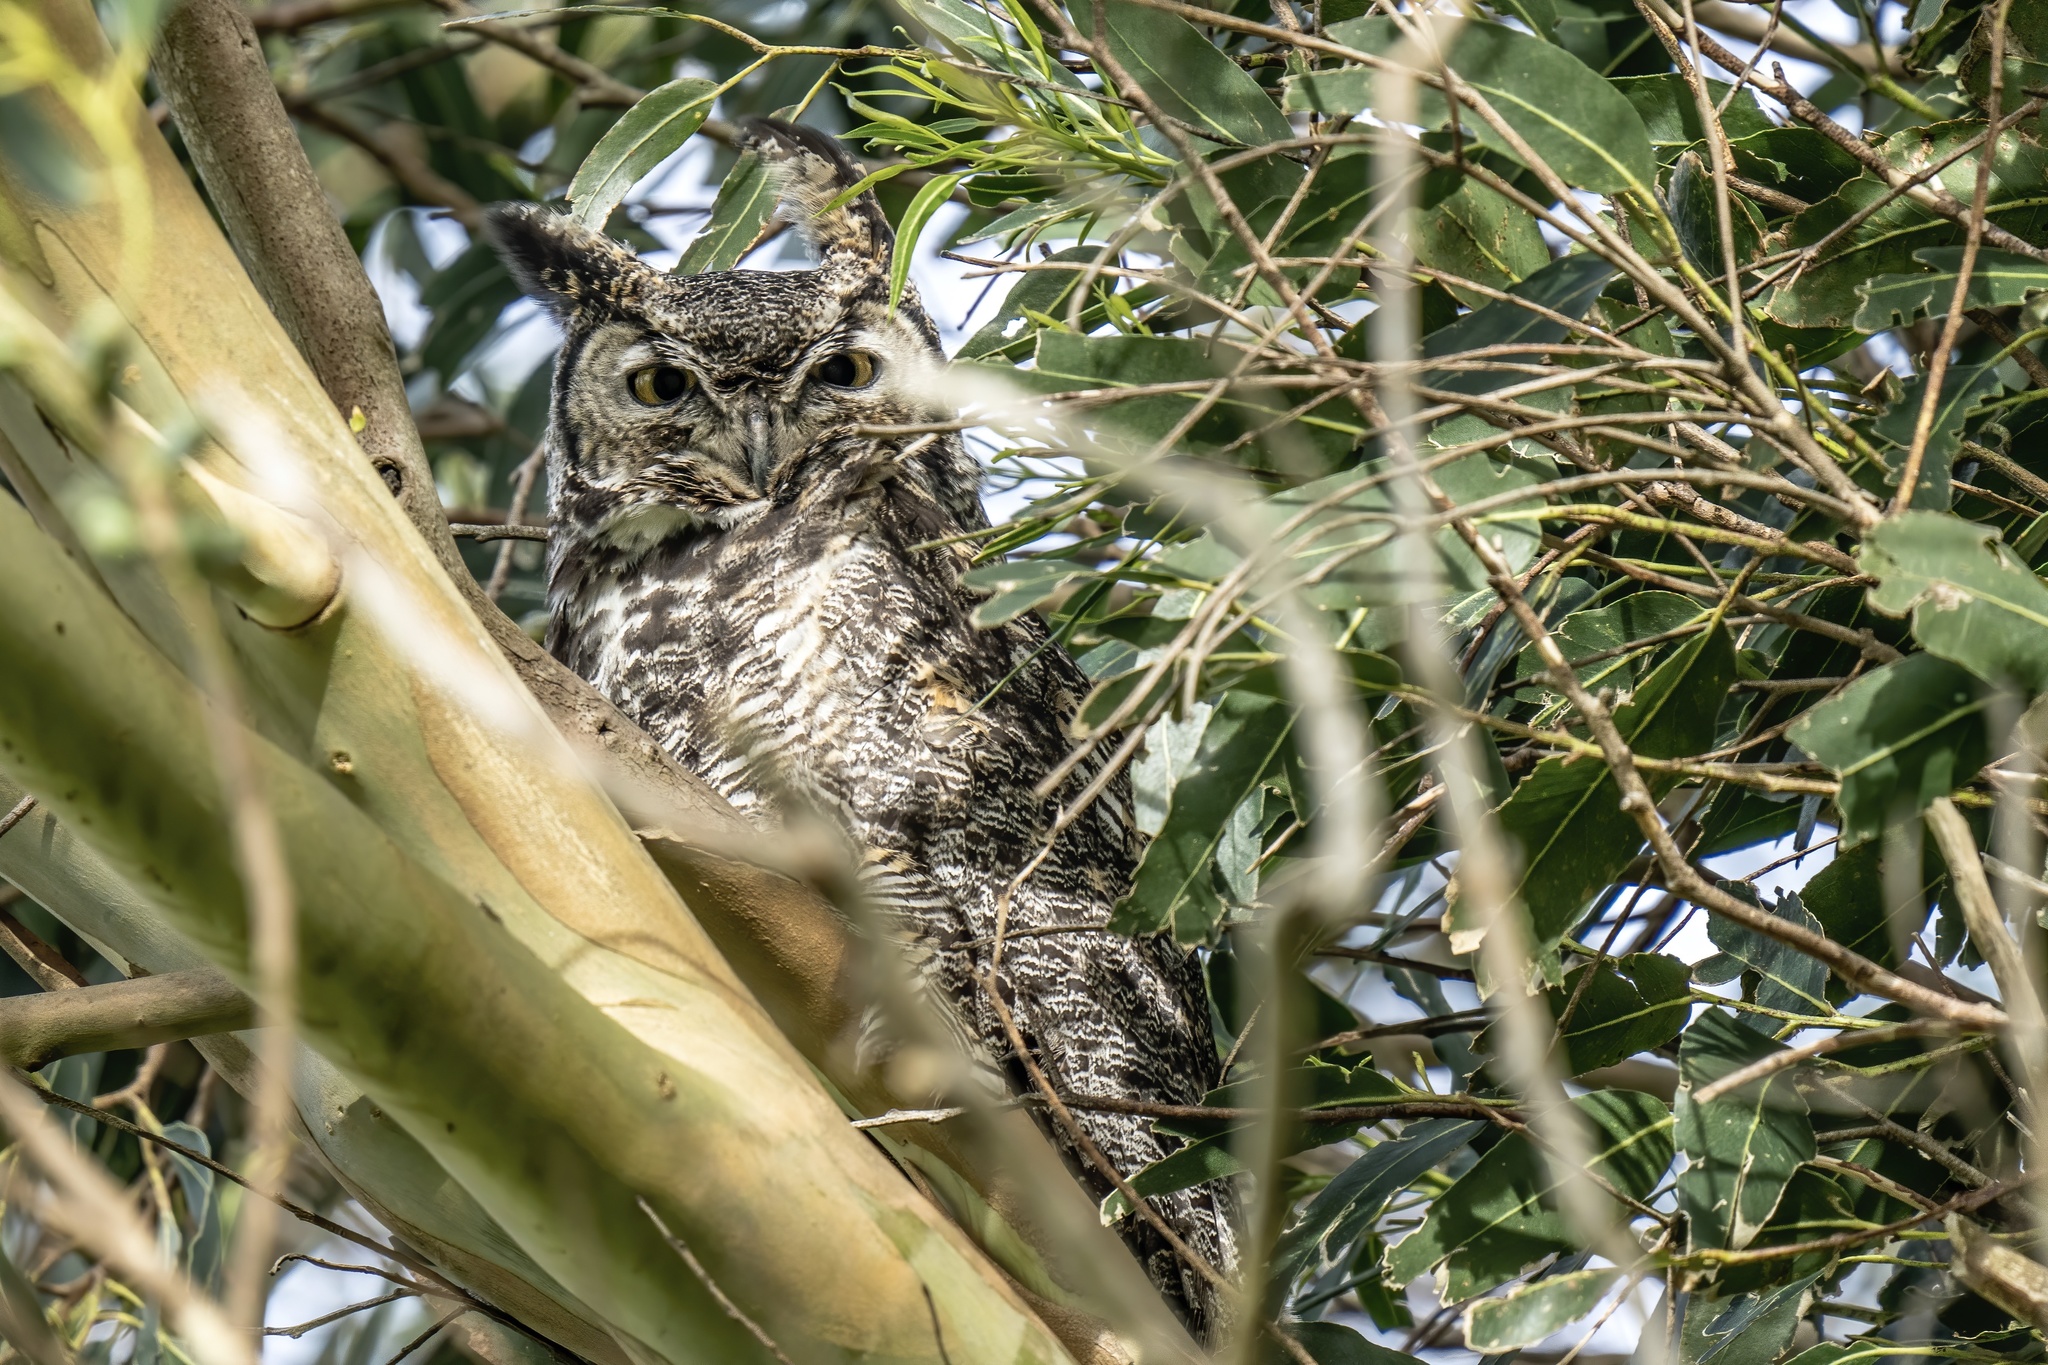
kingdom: Animalia
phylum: Chordata
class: Aves
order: Strigiformes
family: Strigidae
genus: Bubo
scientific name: Bubo virginianus
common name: Great horned owl
